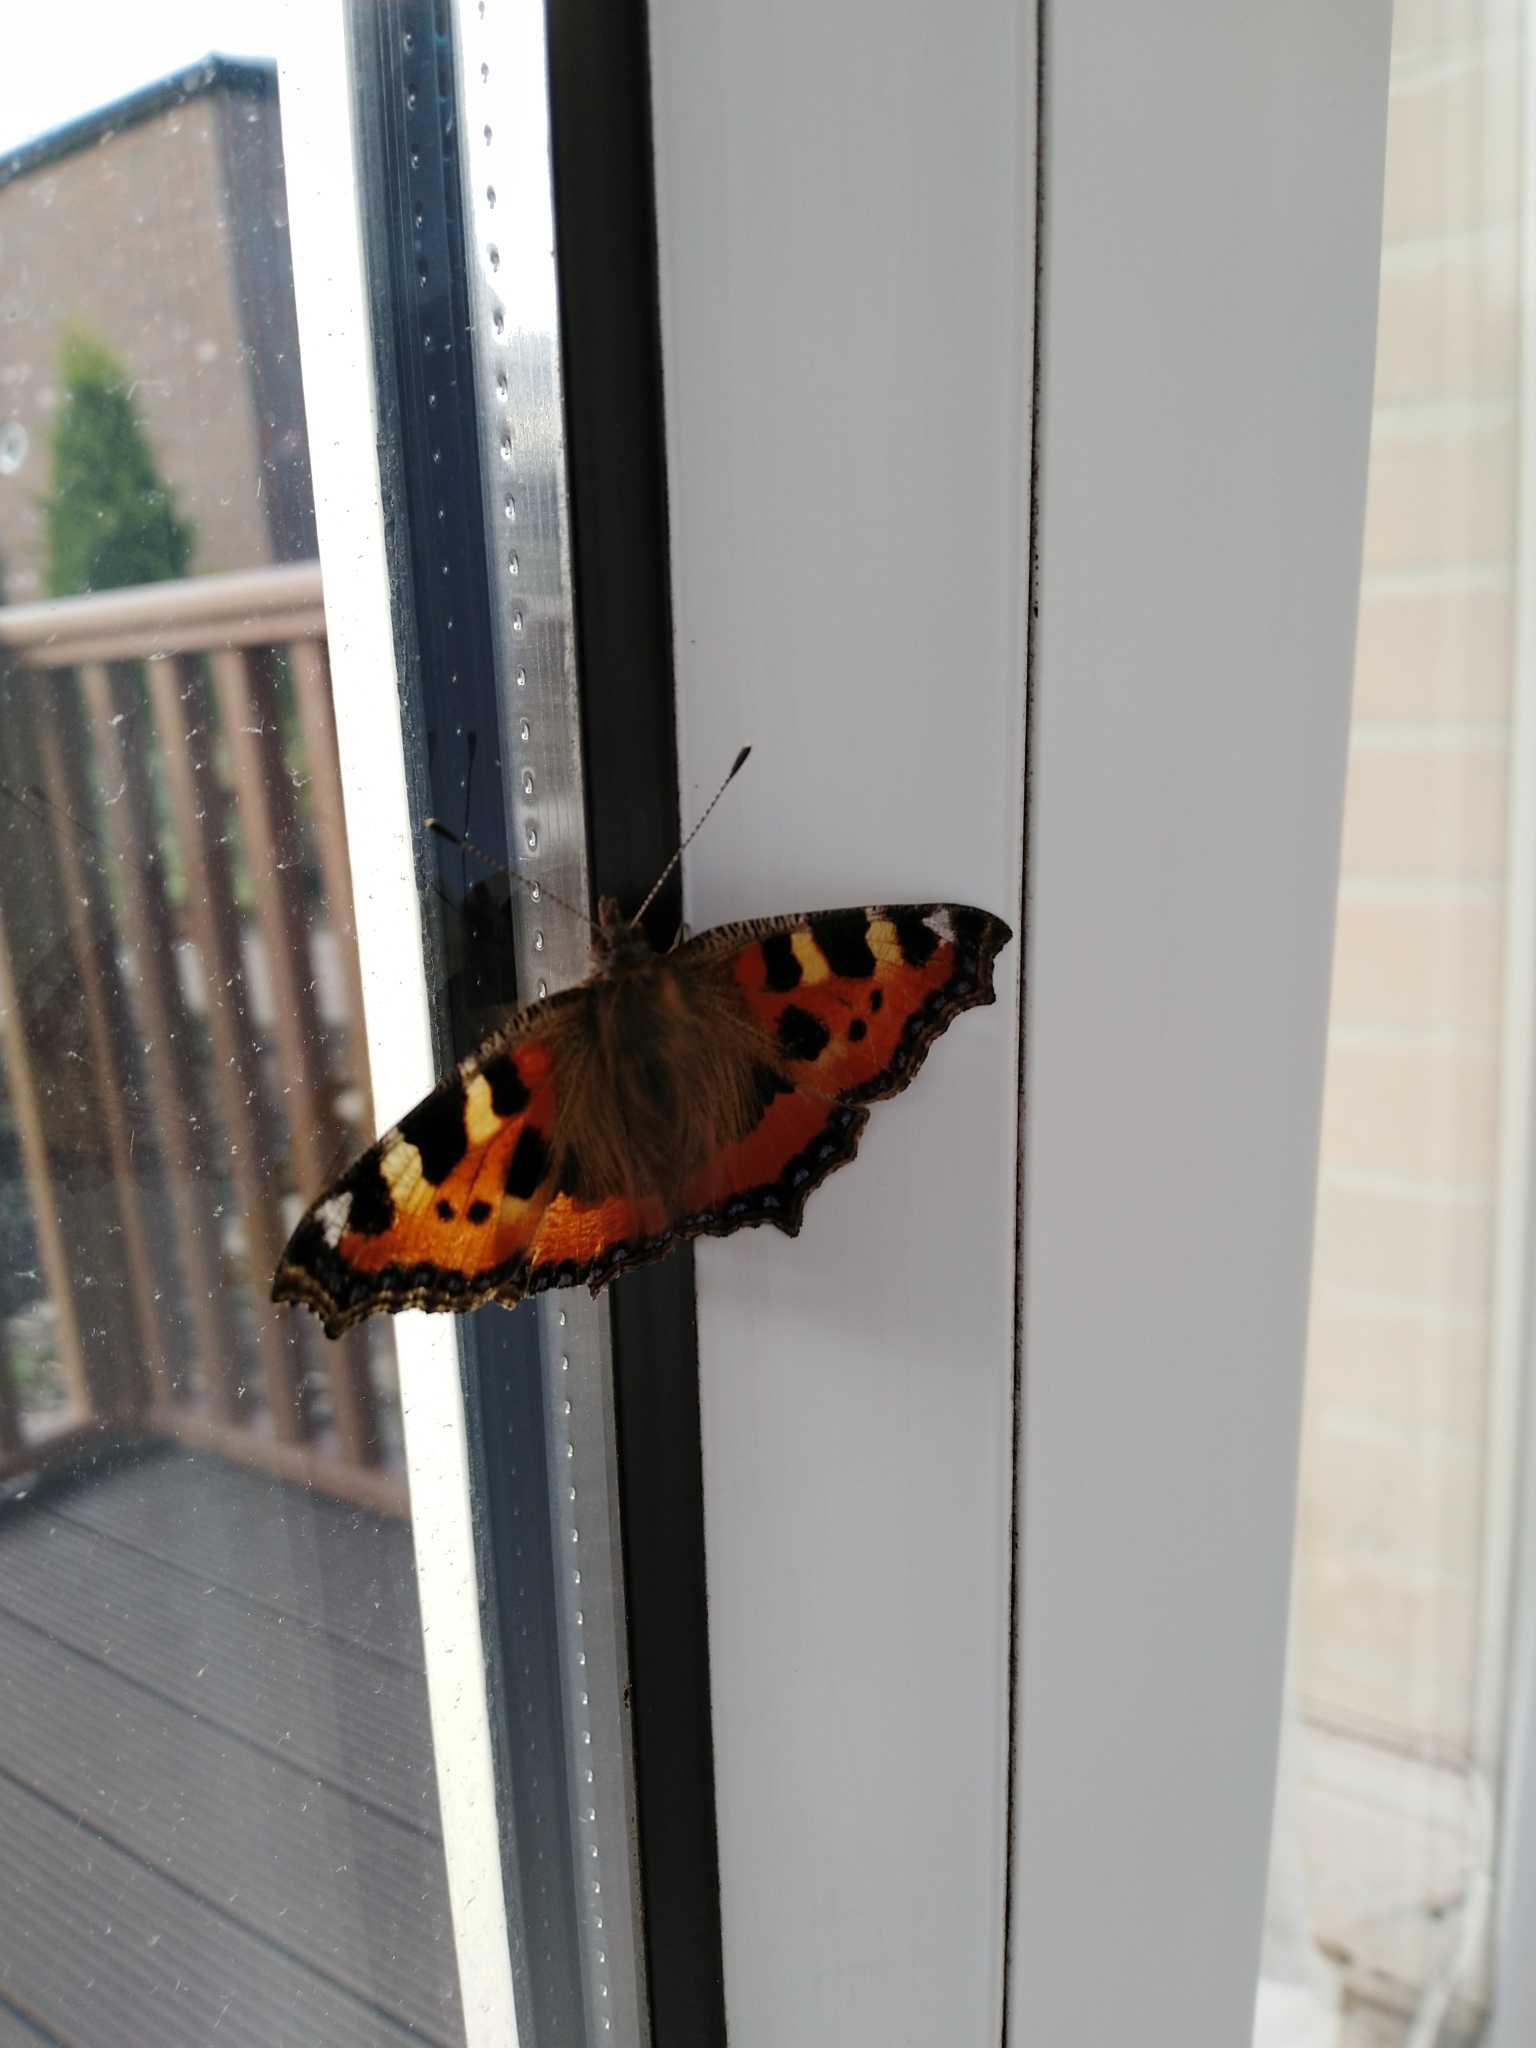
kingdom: Animalia
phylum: Arthropoda
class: Insecta
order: Lepidoptera
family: Nymphalidae
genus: Aglais
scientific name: Aglais urticae
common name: Small tortoiseshell
